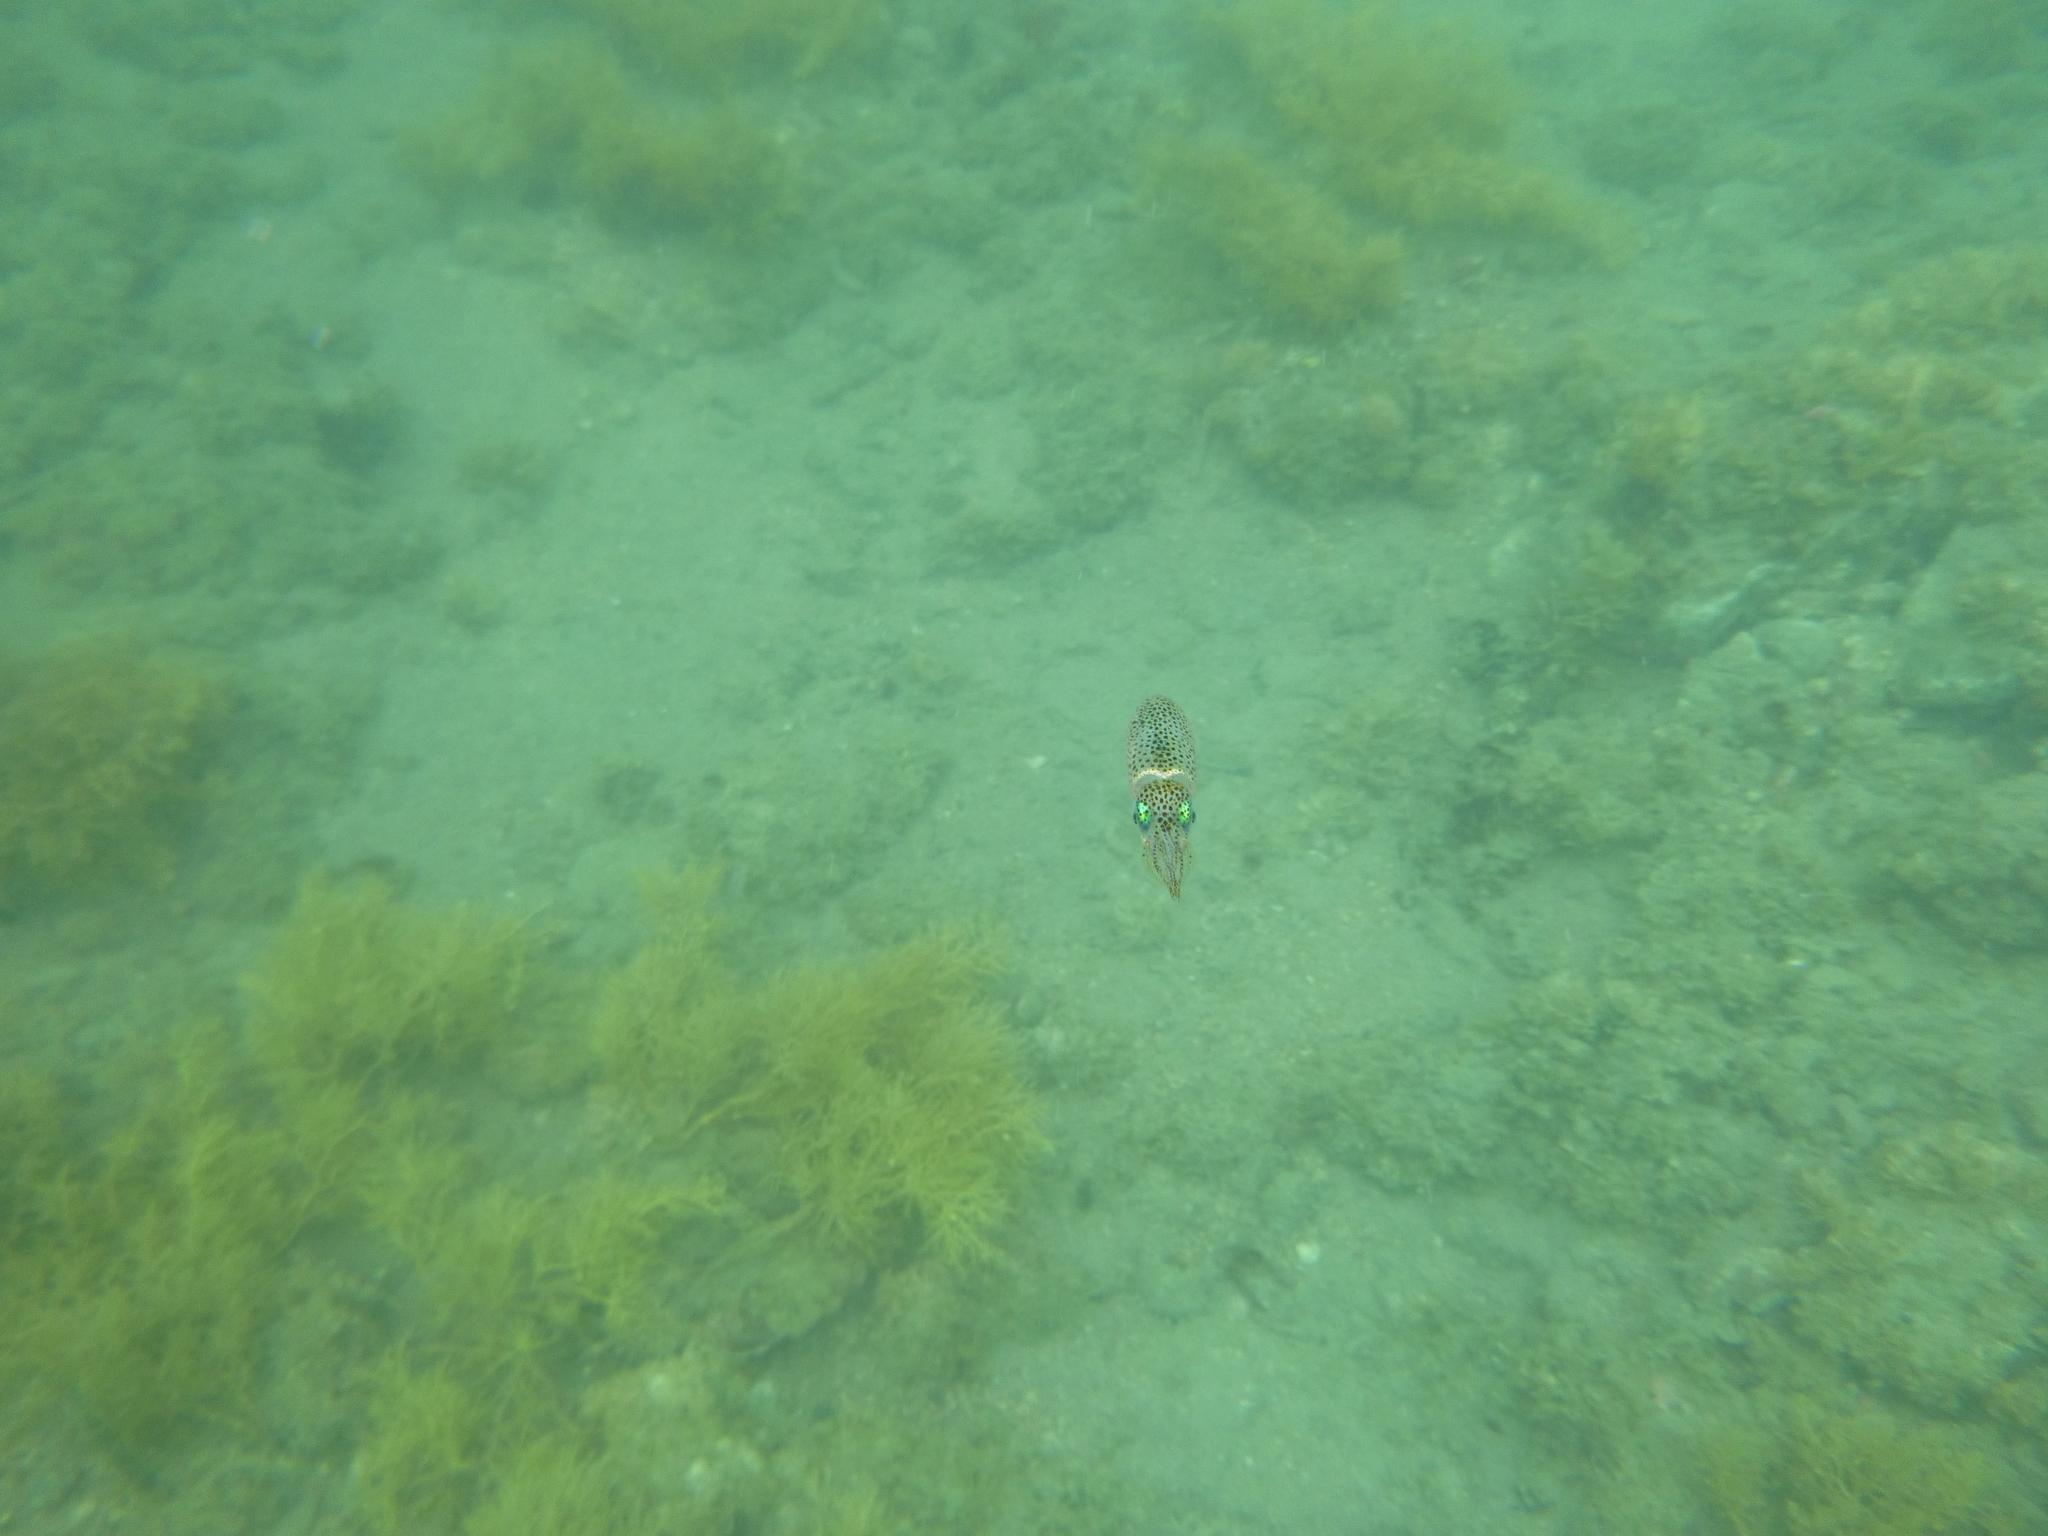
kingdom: Animalia
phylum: Mollusca
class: Cephalopoda
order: Myopsida
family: Loliginidae
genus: Sepioteuthis
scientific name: Sepioteuthis australis
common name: Southern reef squid
